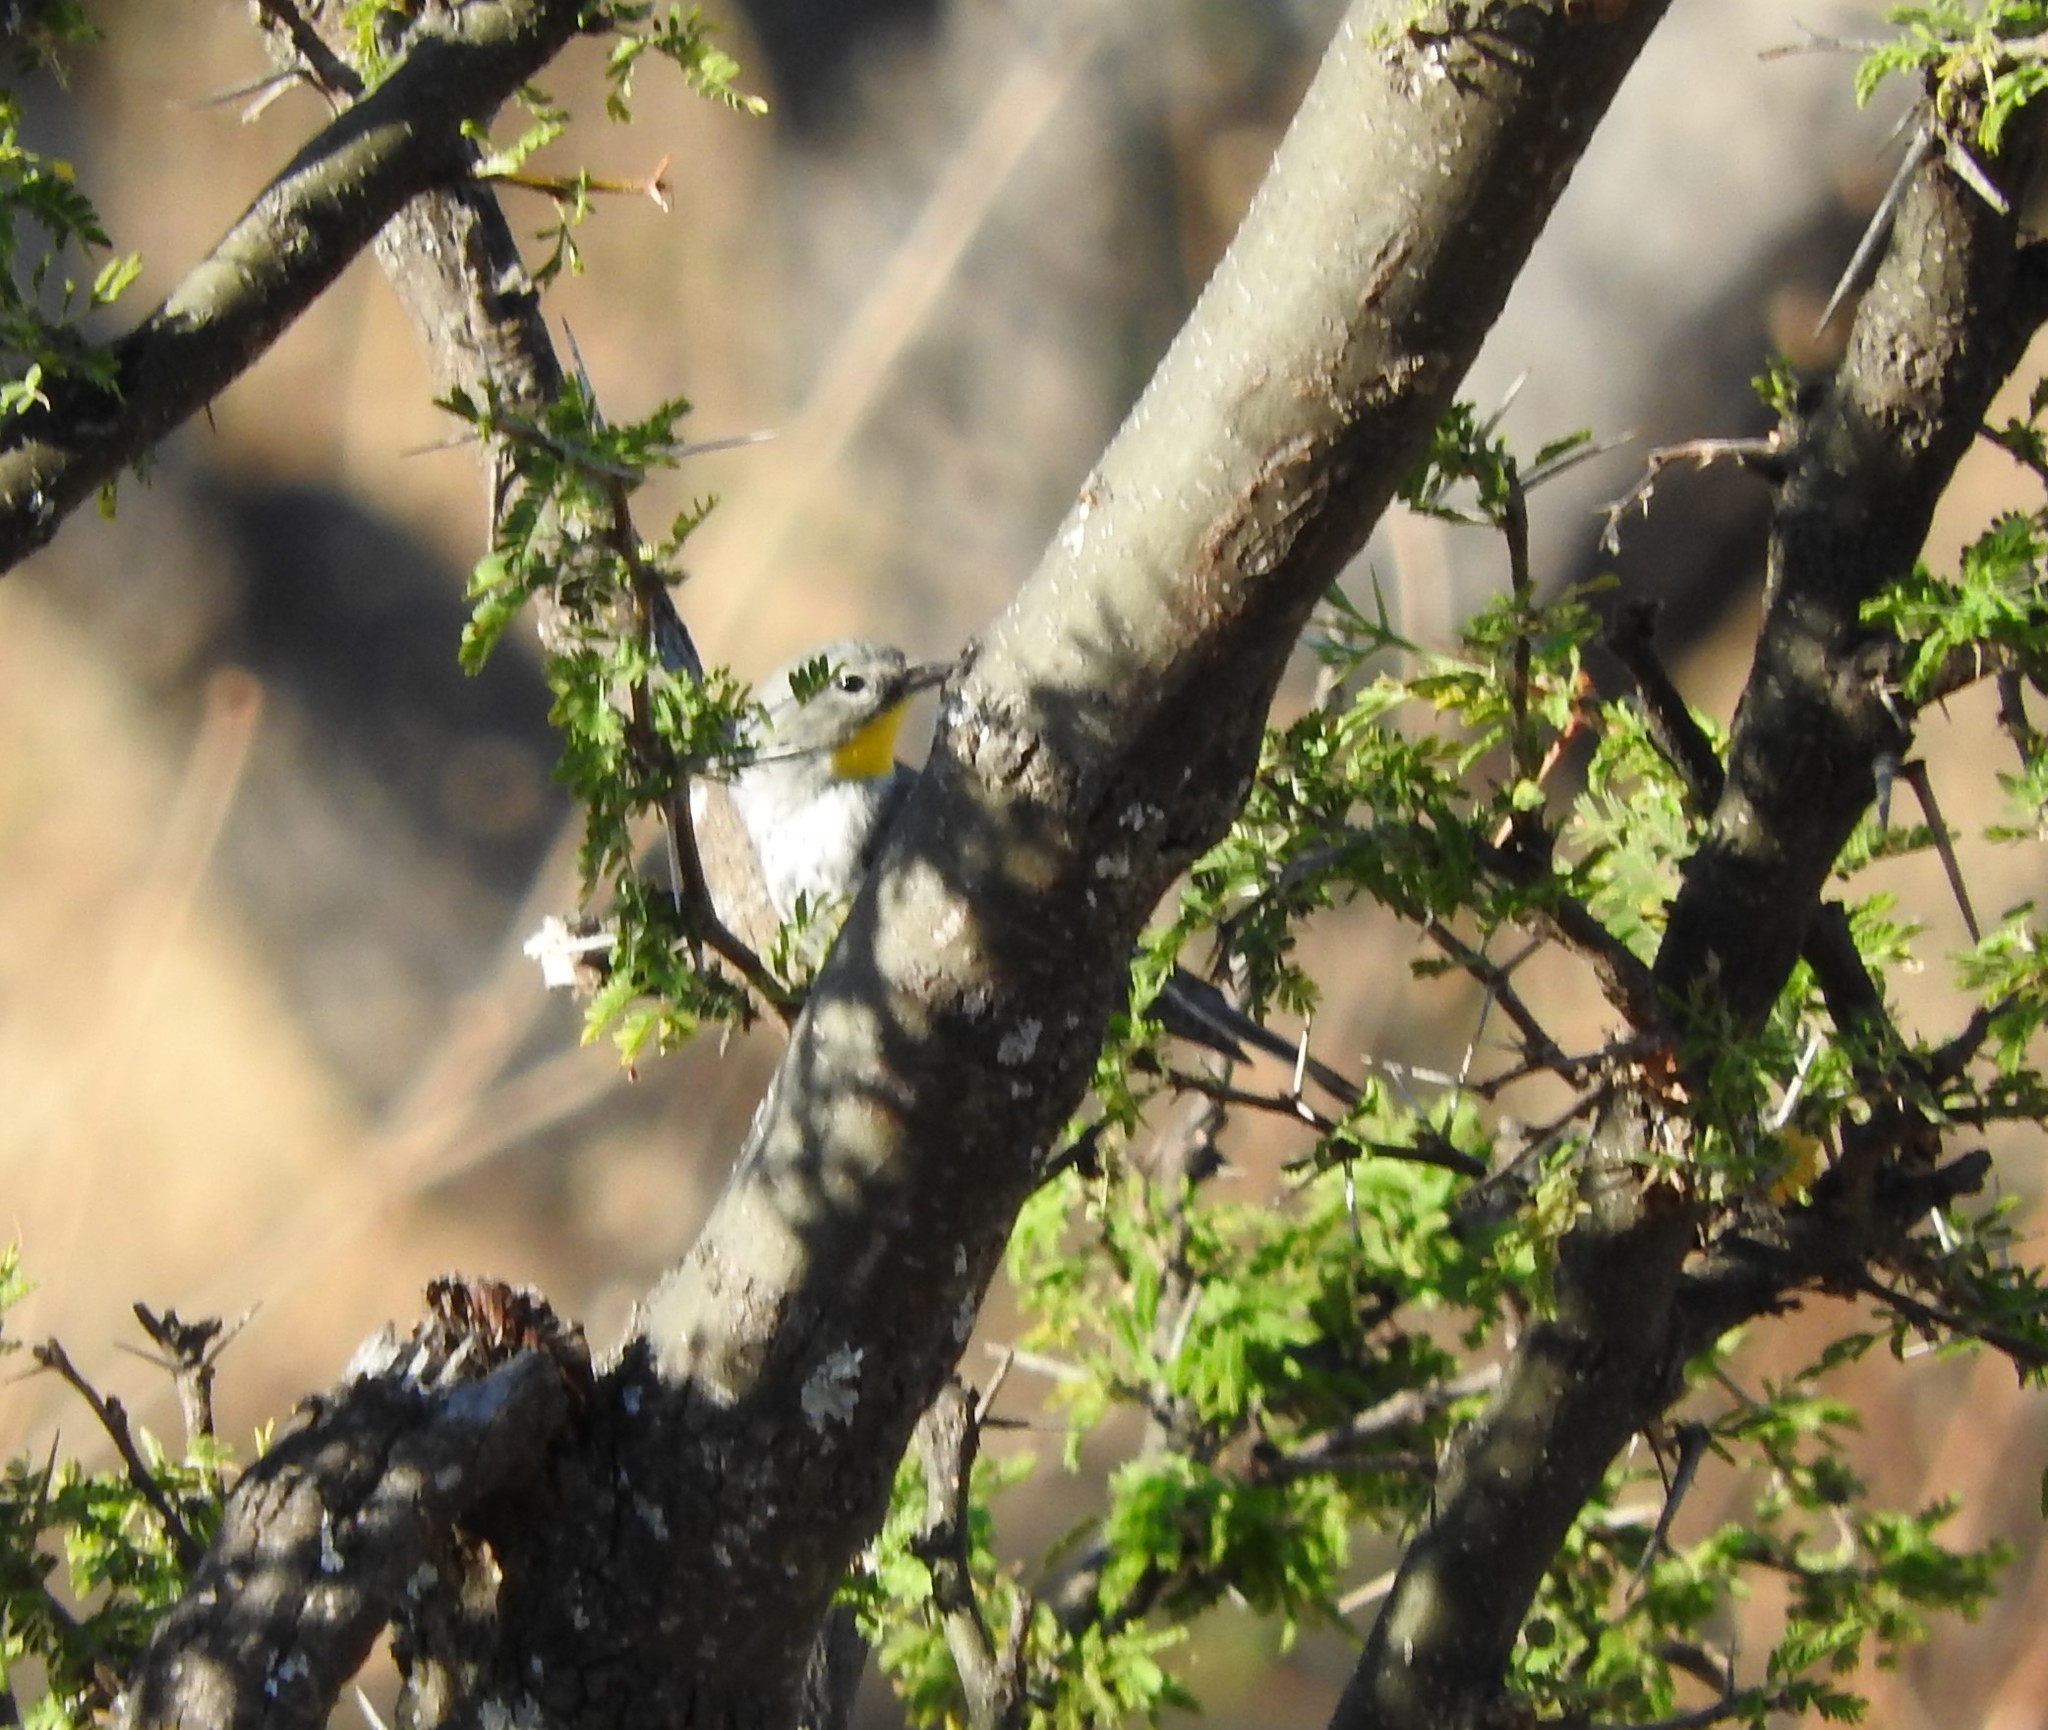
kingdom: Animalia
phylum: Chordata
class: Aves
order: Passeriformes
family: Parulidae
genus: Setophaga
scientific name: Setophaga coronata
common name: Myrtle warbler
